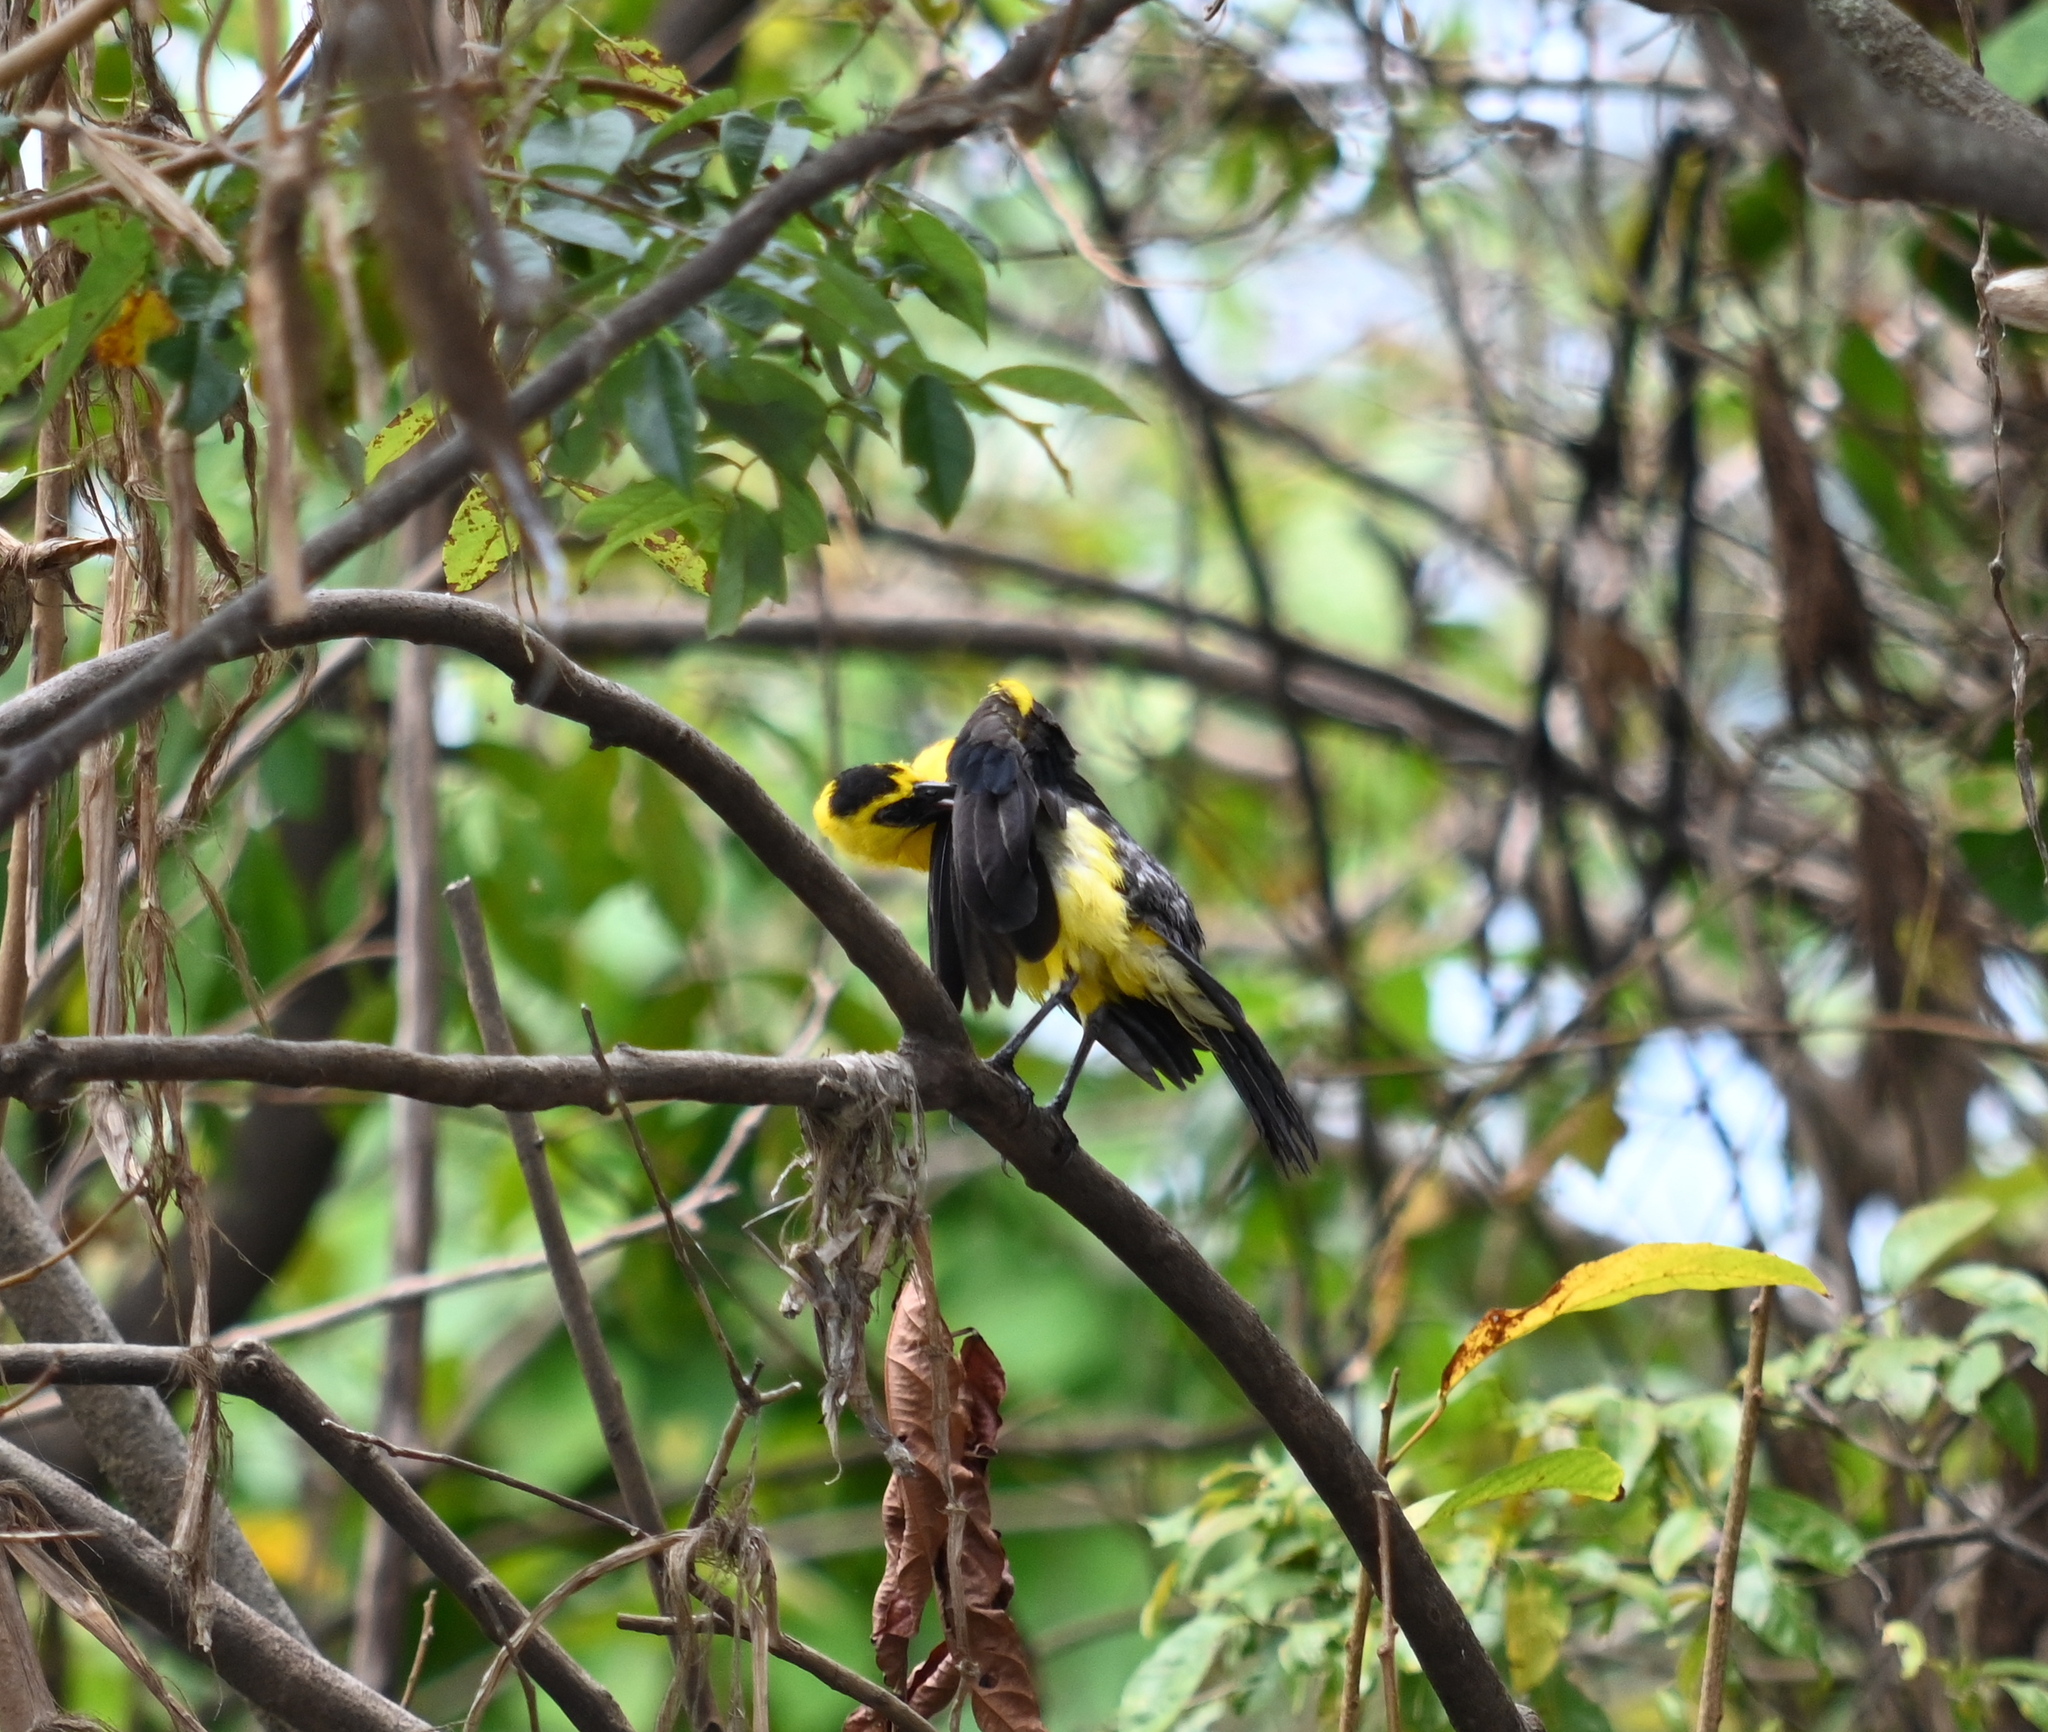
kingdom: Animalia
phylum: Chordata
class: Aves
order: Passeriformes
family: Icteridae
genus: Gymnomystax
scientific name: Gymnomystax mexicanus
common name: Oriole blackbird
